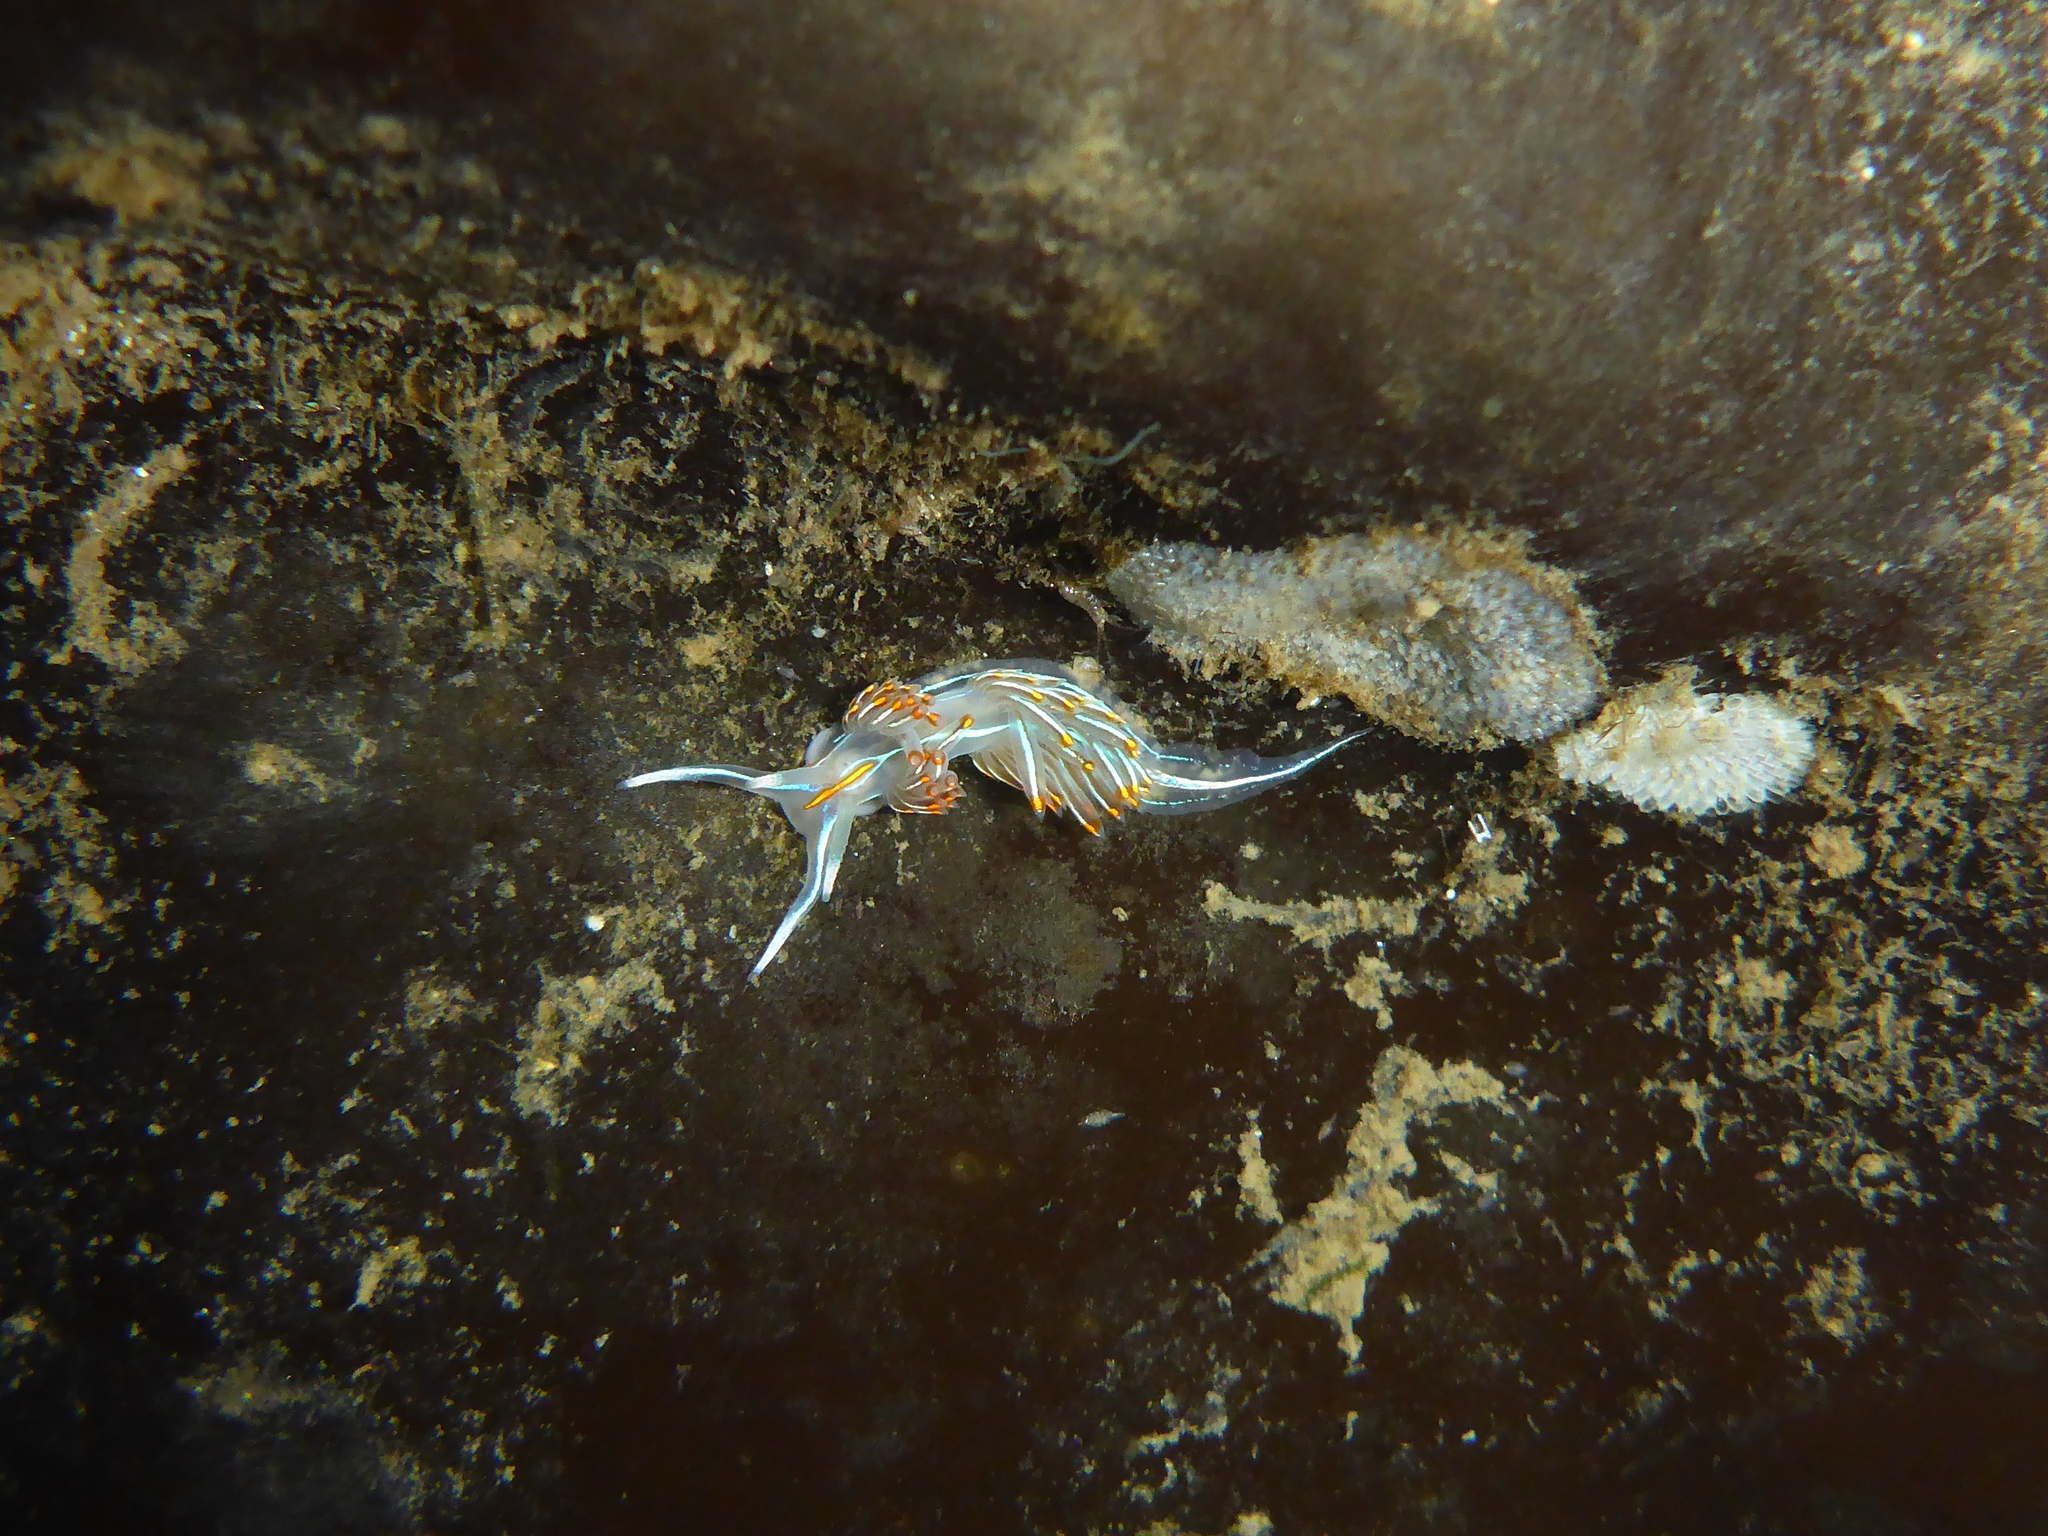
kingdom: Animalia
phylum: Mollusca
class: Gastropoda
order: Nudibranchia
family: Myrrhinidae
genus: Hermissenda
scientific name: Hermissenda crassicornis
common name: Hermissenda
